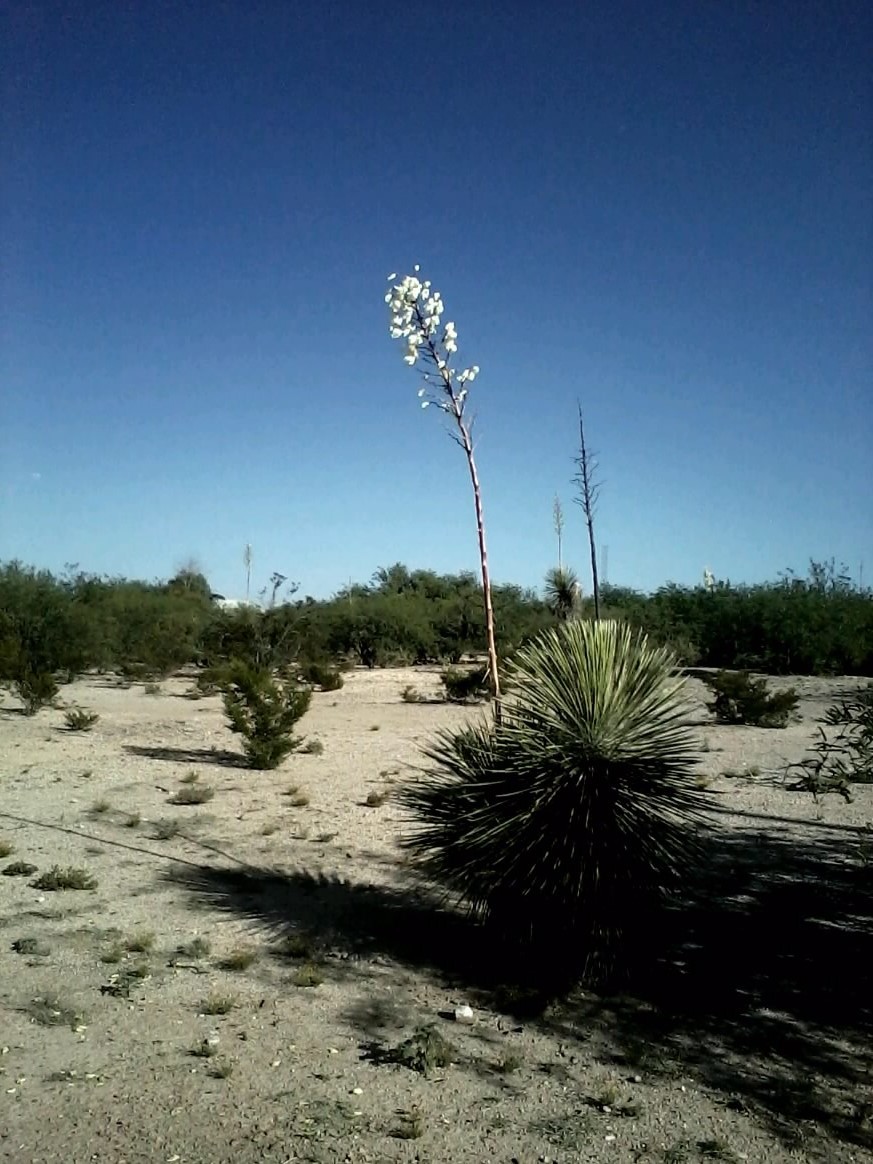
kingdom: Plantae
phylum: Tracheophyta
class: Liliopsida
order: Asparagales
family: Asparagaceae
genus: Yucca
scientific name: Yucca elata
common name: Palmella
